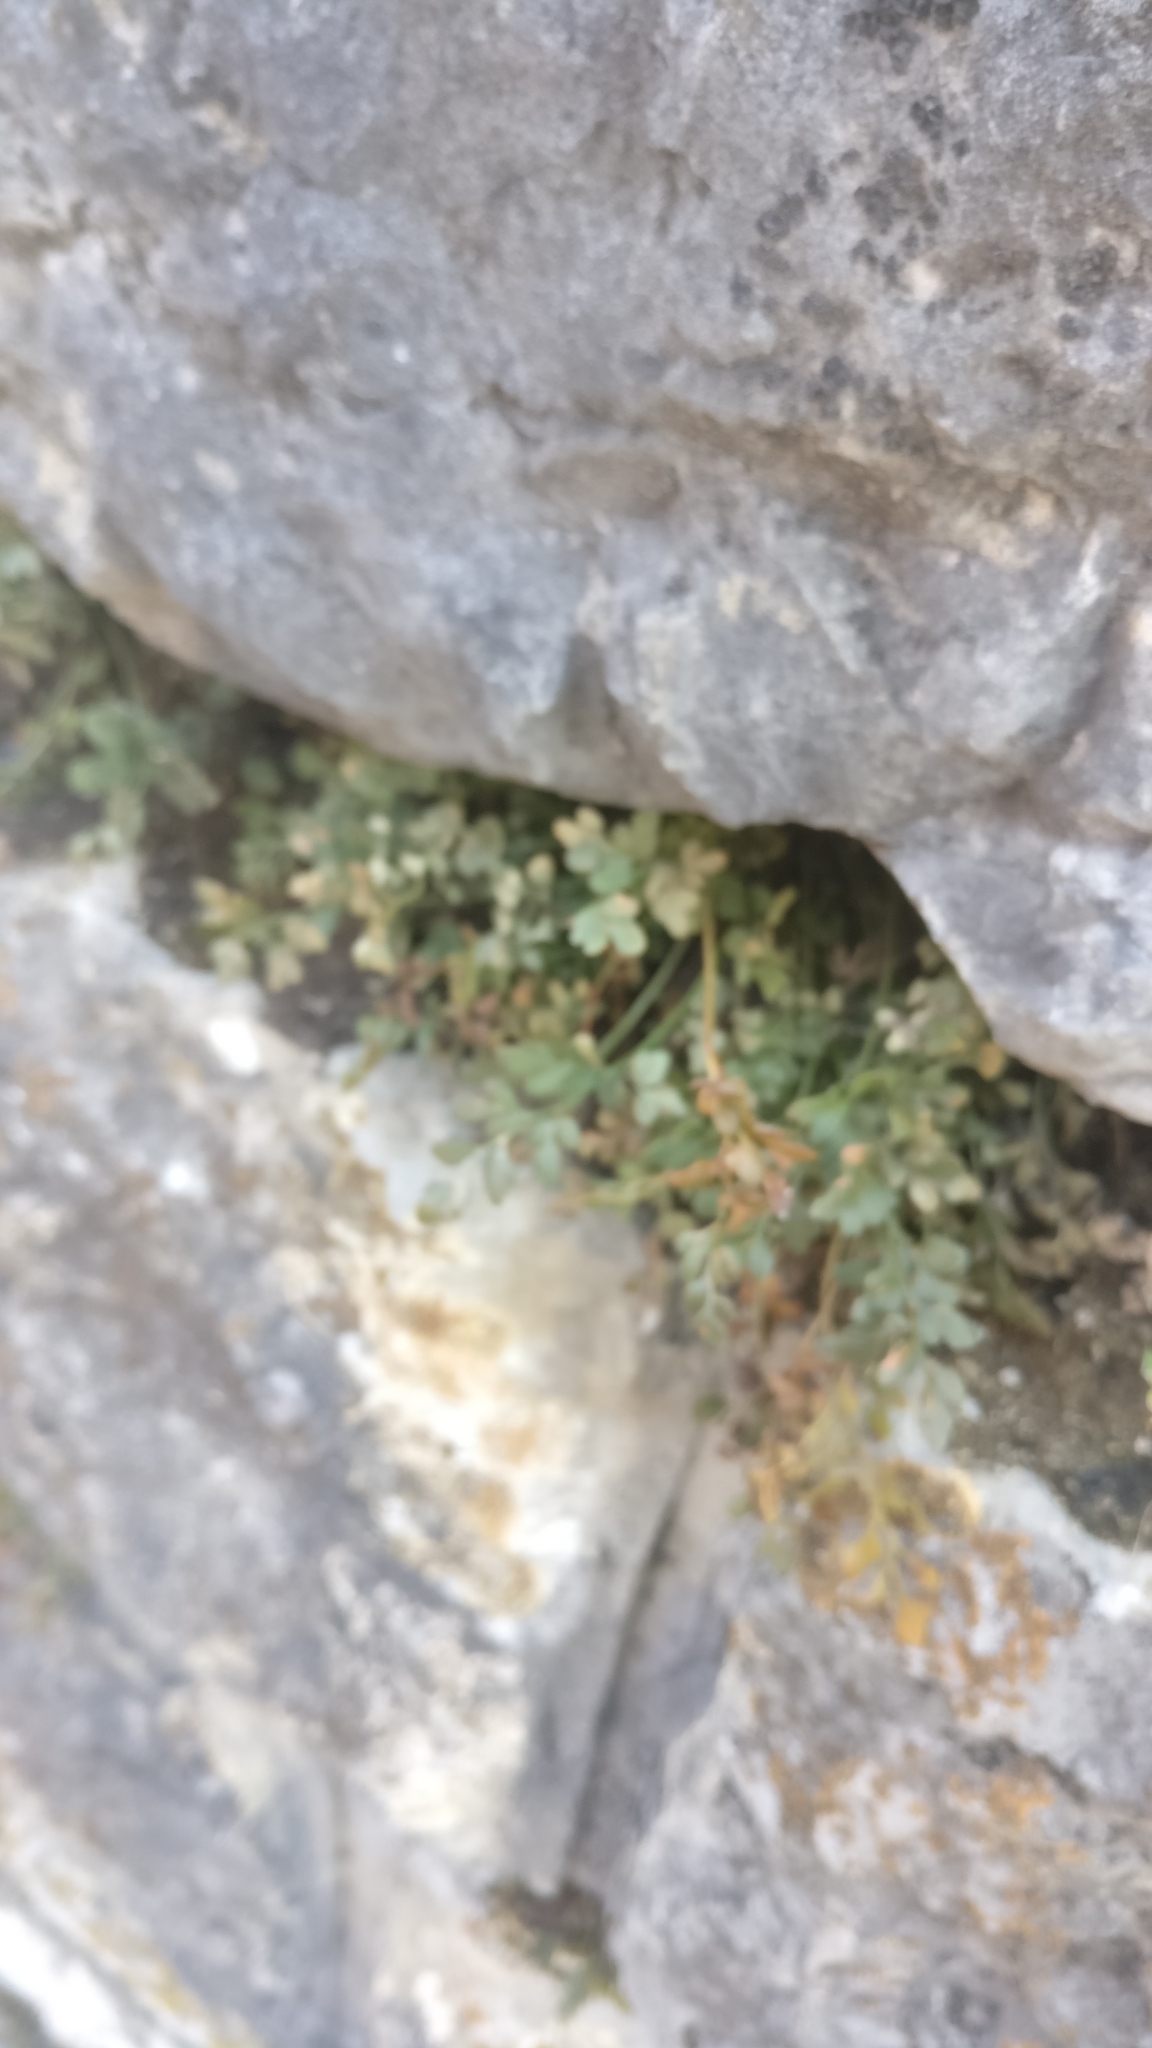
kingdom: Plantae
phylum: Tracheophyta
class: Polypodiopsida
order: Polypodiales
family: Aspleniaceae
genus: Asplenium
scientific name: Asplenium ruta-muraria
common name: Wall-rue
